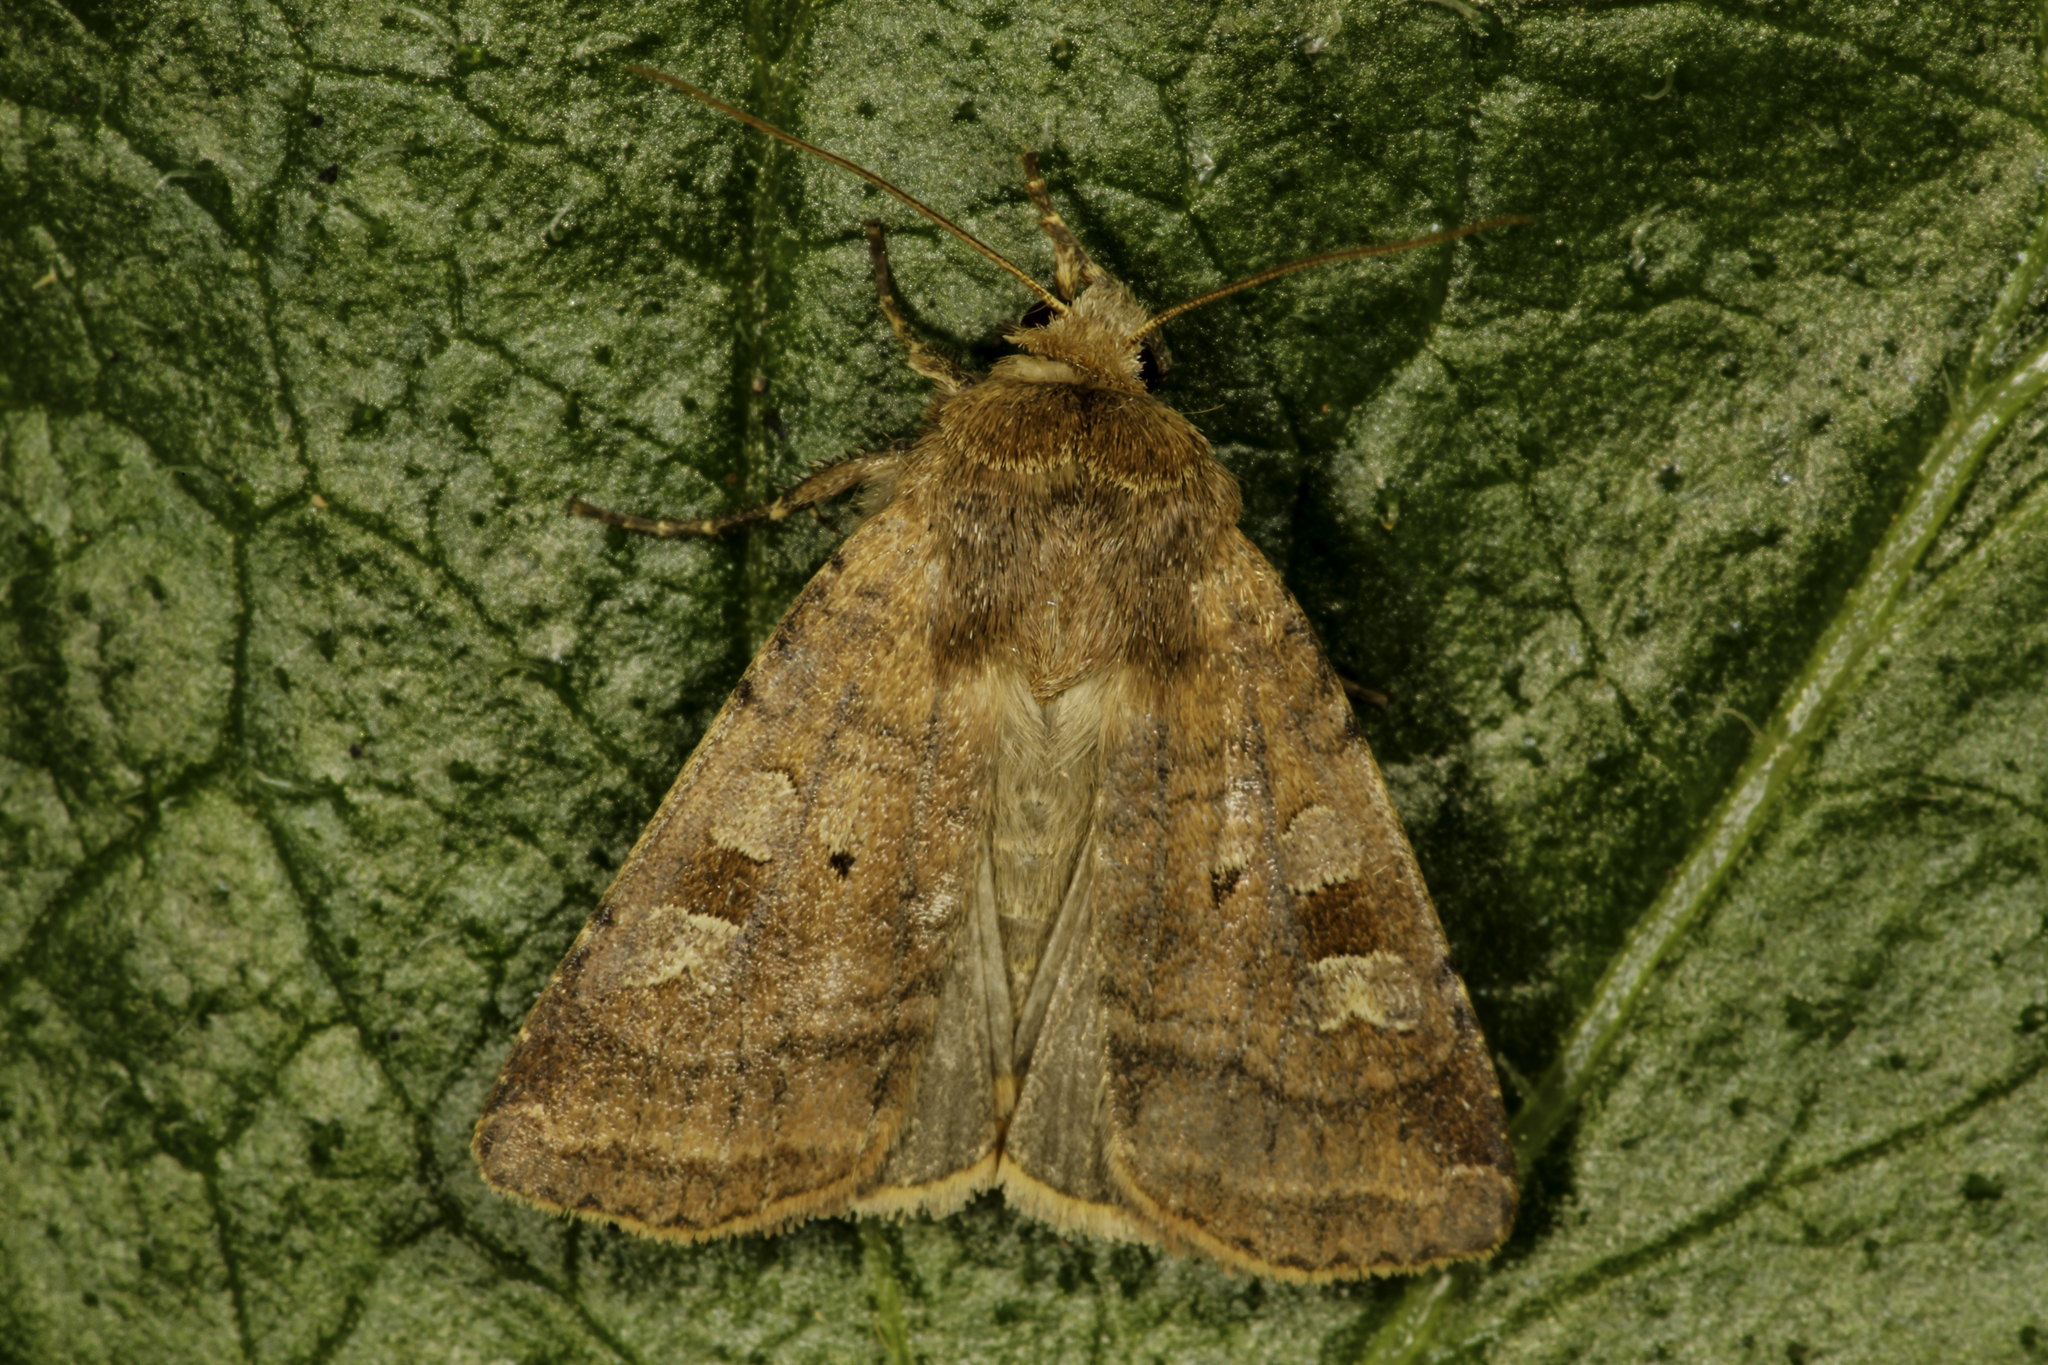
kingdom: Animalia
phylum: Arthropoda
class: Insecta
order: Lepidoptera
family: Noctuidae
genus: Diarsia
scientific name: Diarsia rubi
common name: Small square-spot
